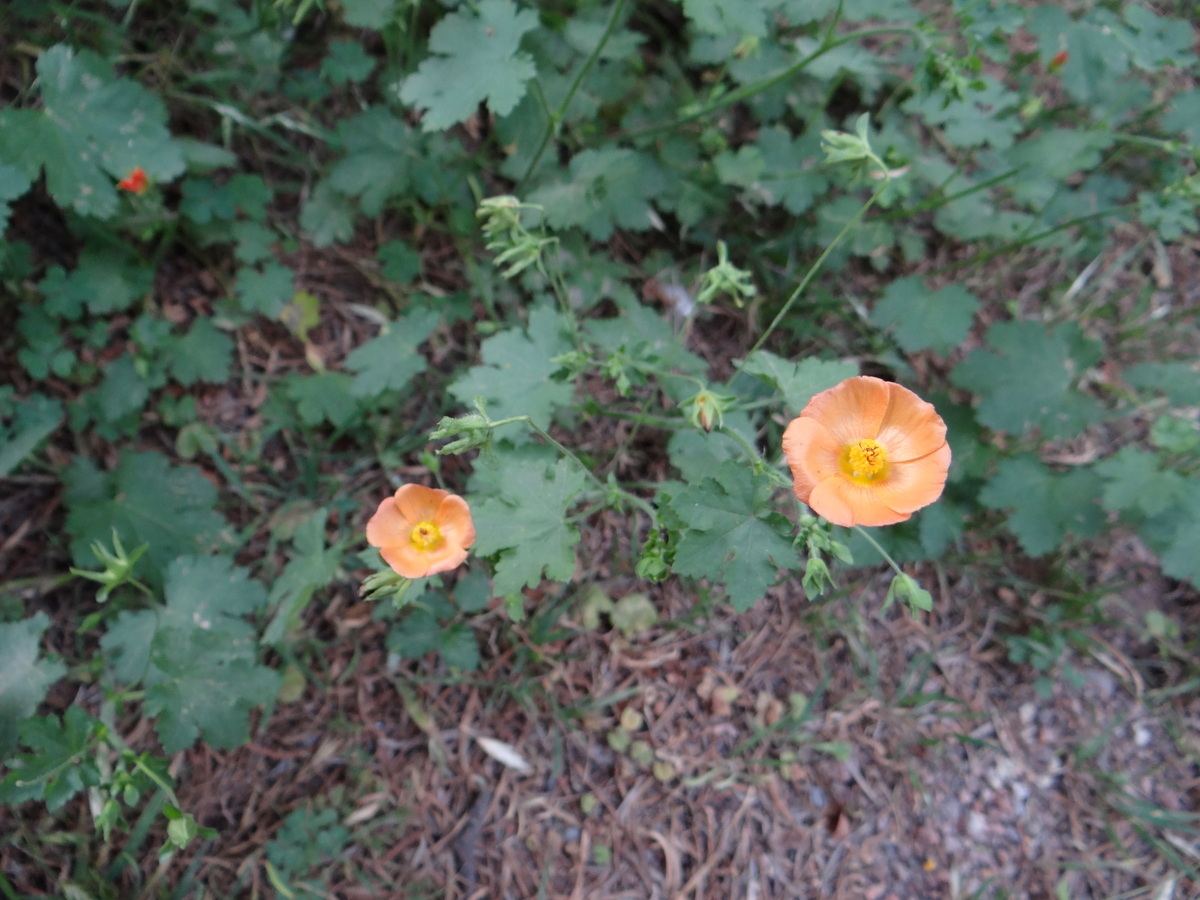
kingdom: Plantae
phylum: Tracheophyta
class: Magnoliopsida
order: Malvales
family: Malvaceae
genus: Modiolastrum
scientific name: Modiolastrum malvifolium
